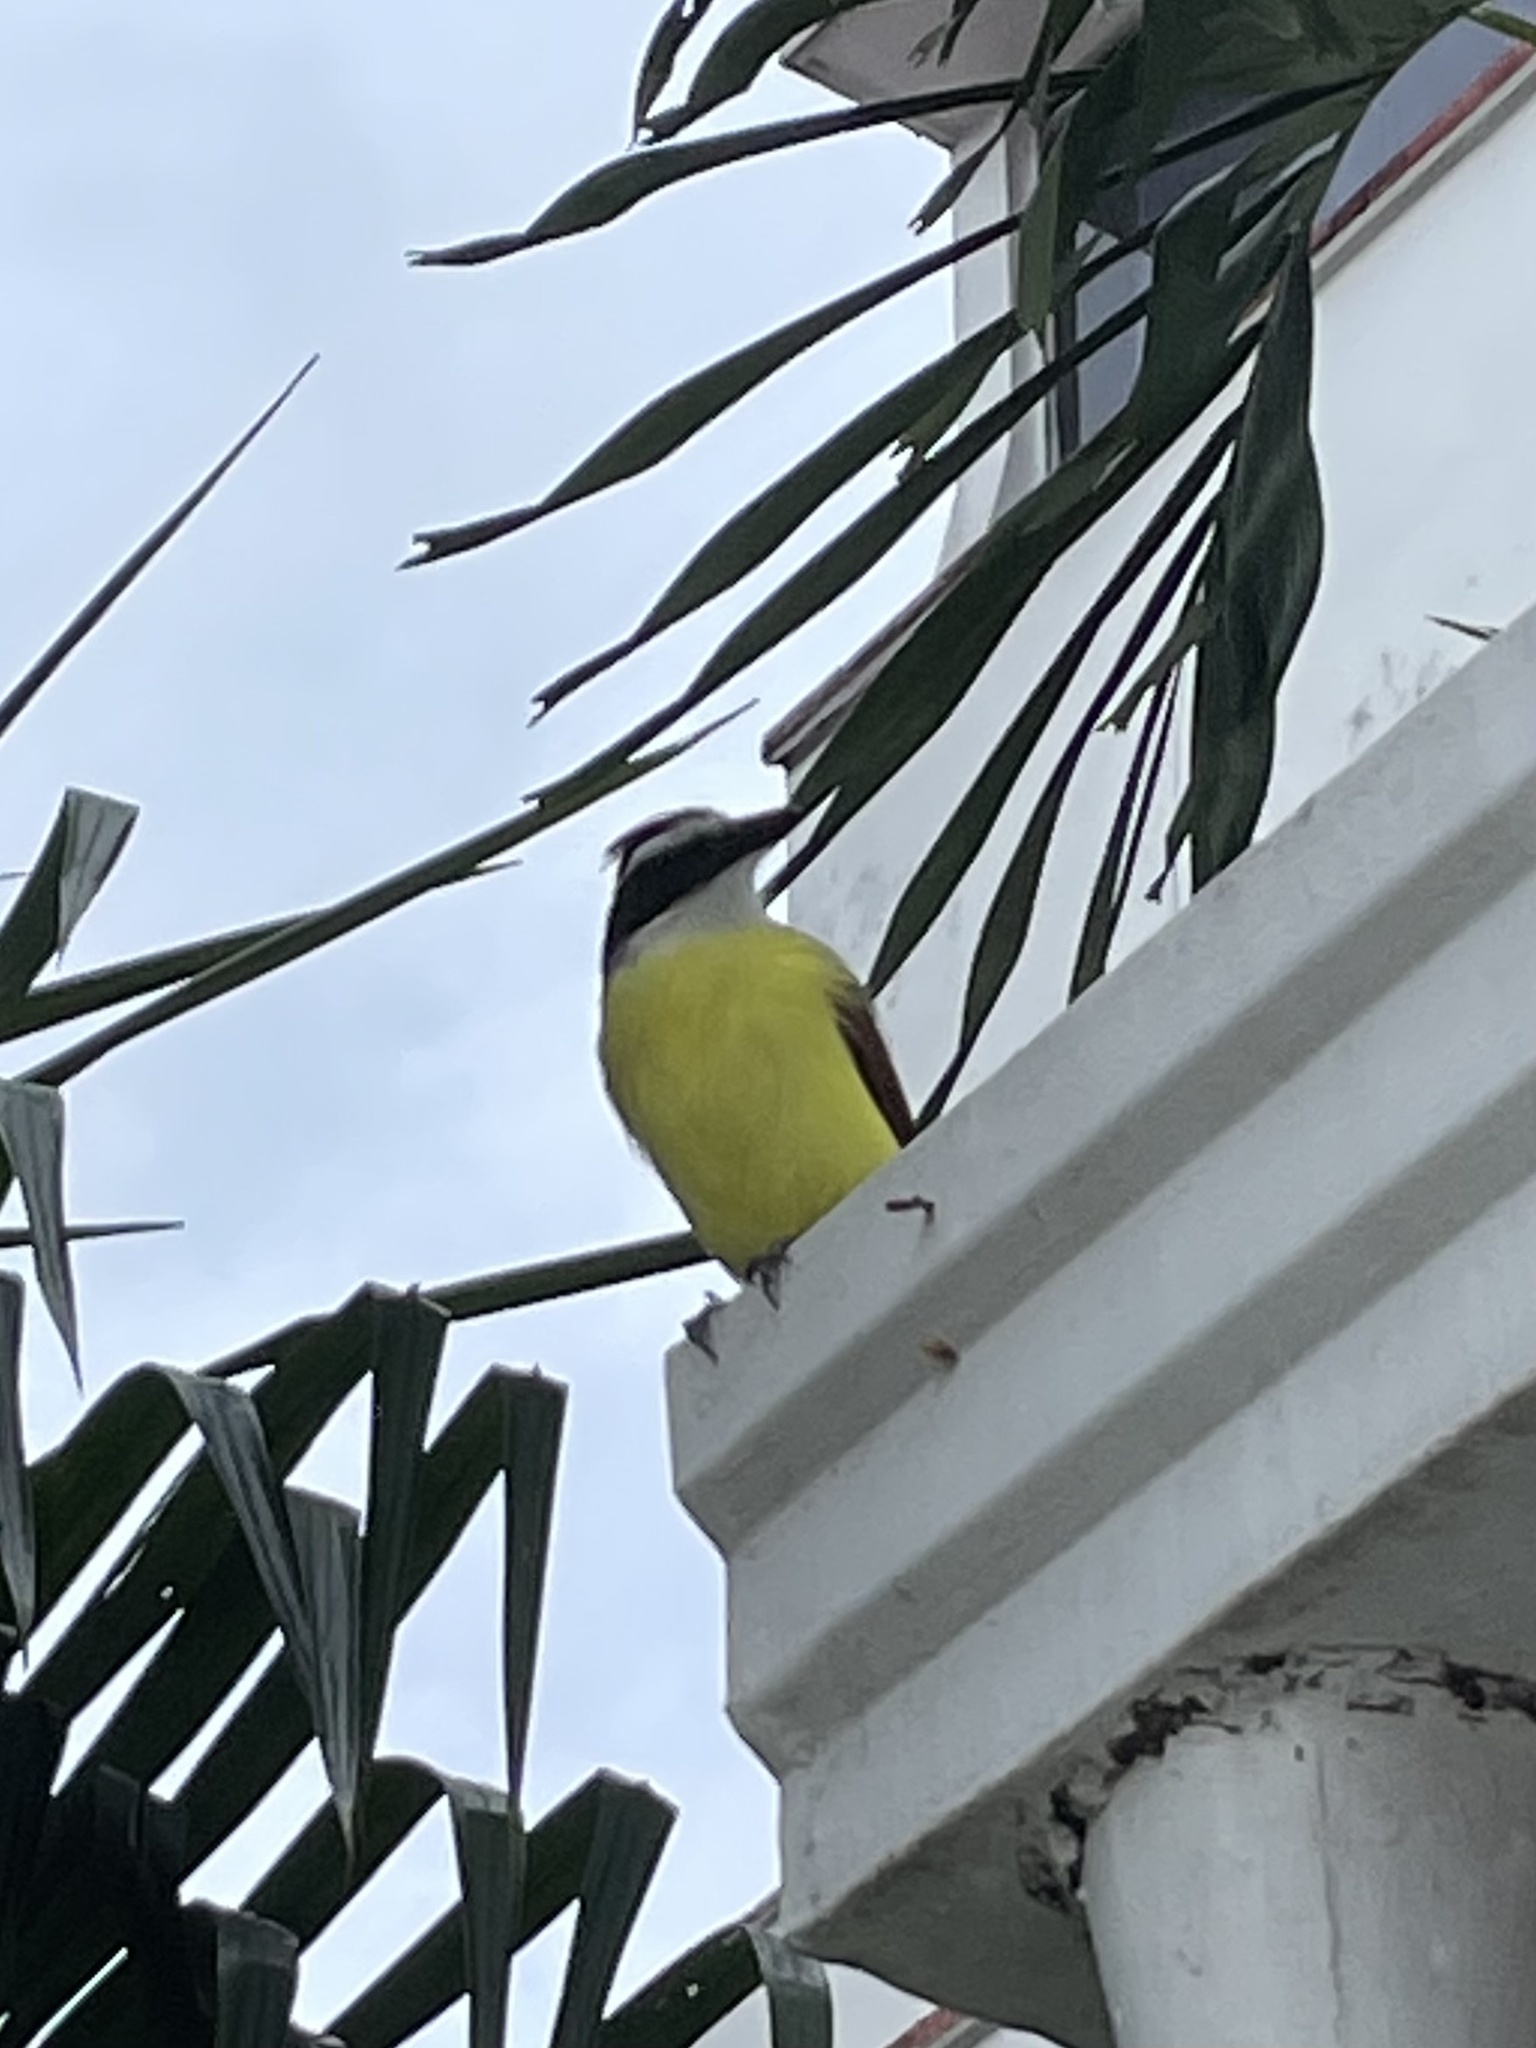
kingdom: Animalia
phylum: Chordata
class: Aves
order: Passeriformes
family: Tyrannidae
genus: Pitangus
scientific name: Pitangus sulphuratus
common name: Great kiskadee
